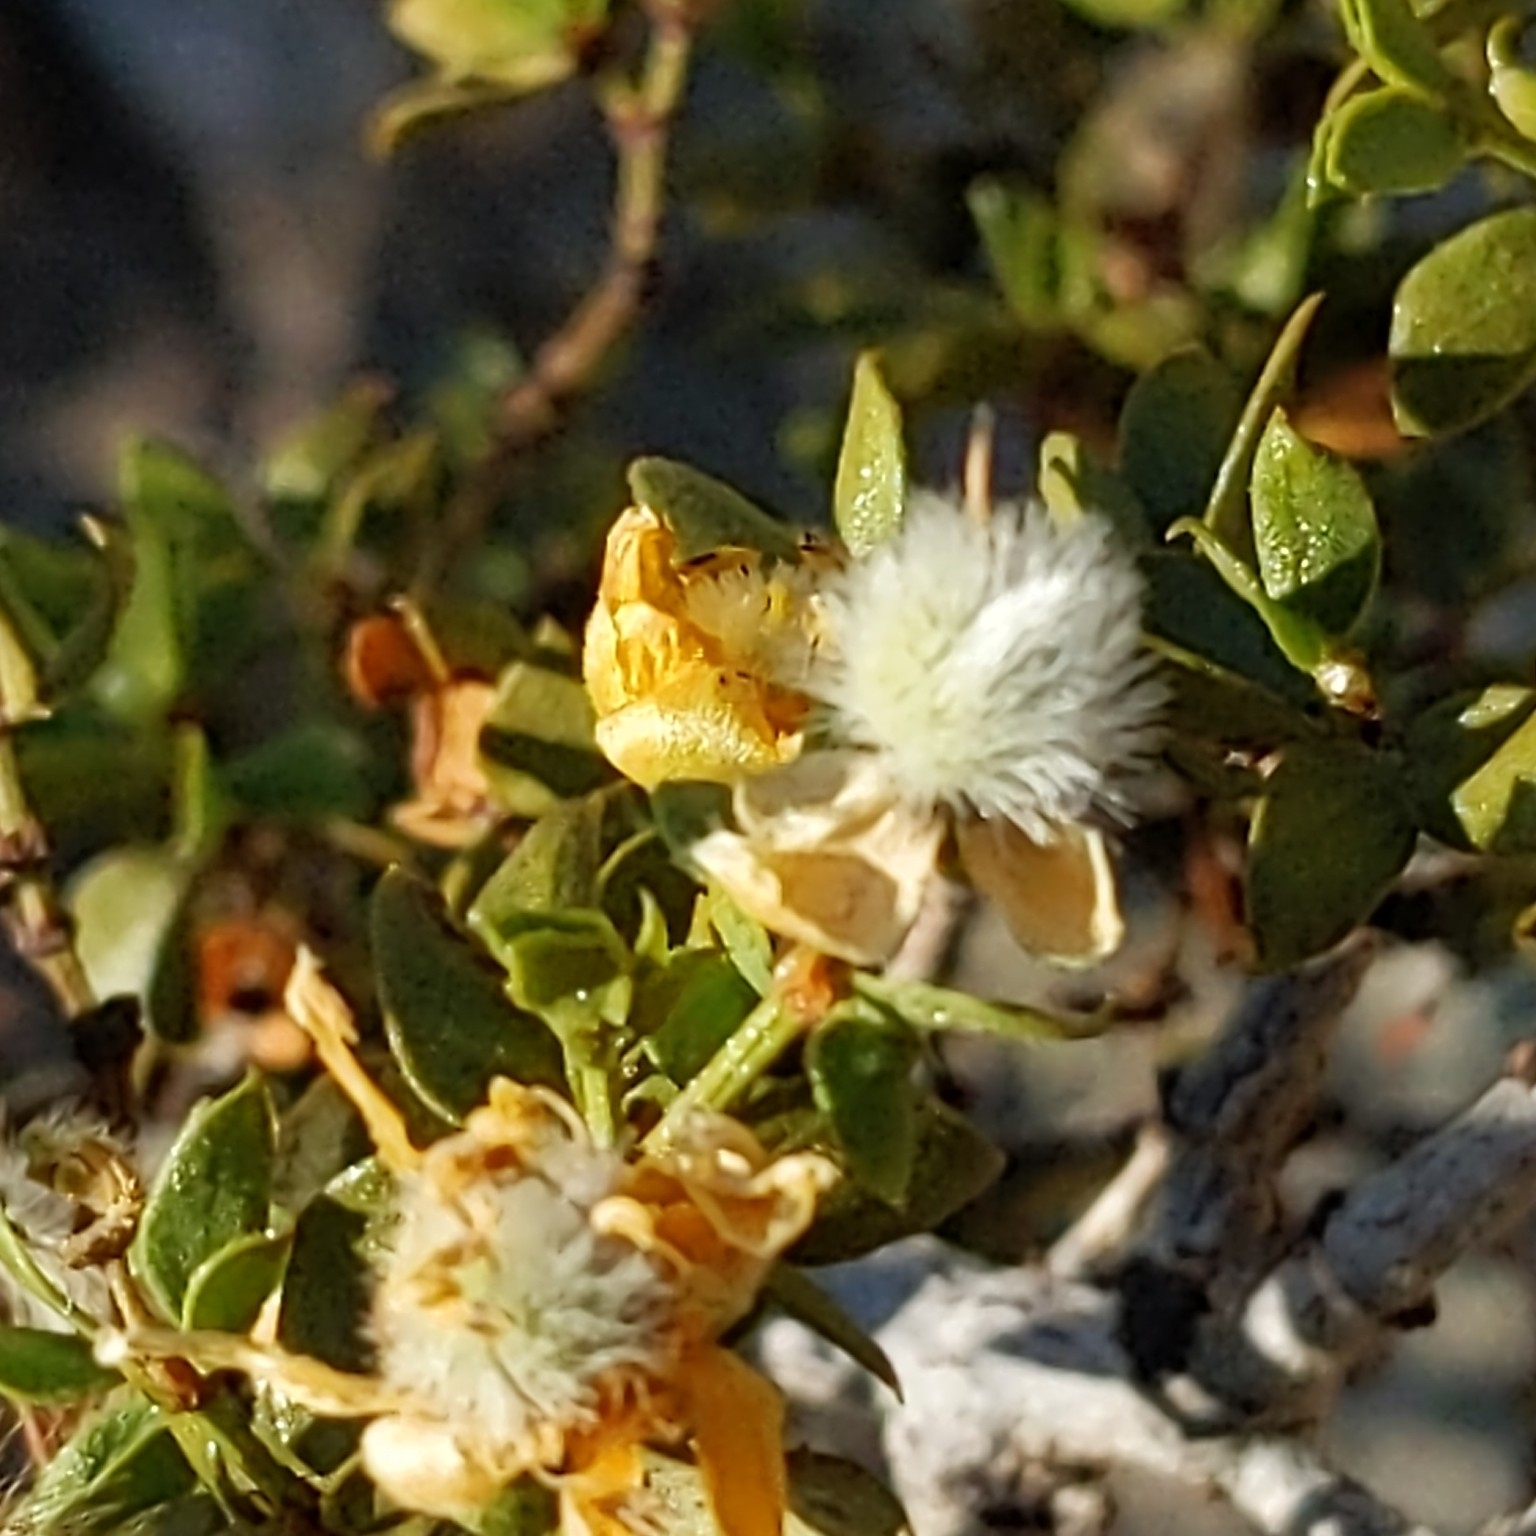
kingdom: Plantae
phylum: Tracheophyta
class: Magnoliopsida
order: Zygophyllales
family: Zygophyllaceae
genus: Larrea
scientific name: Larrea tridentata
